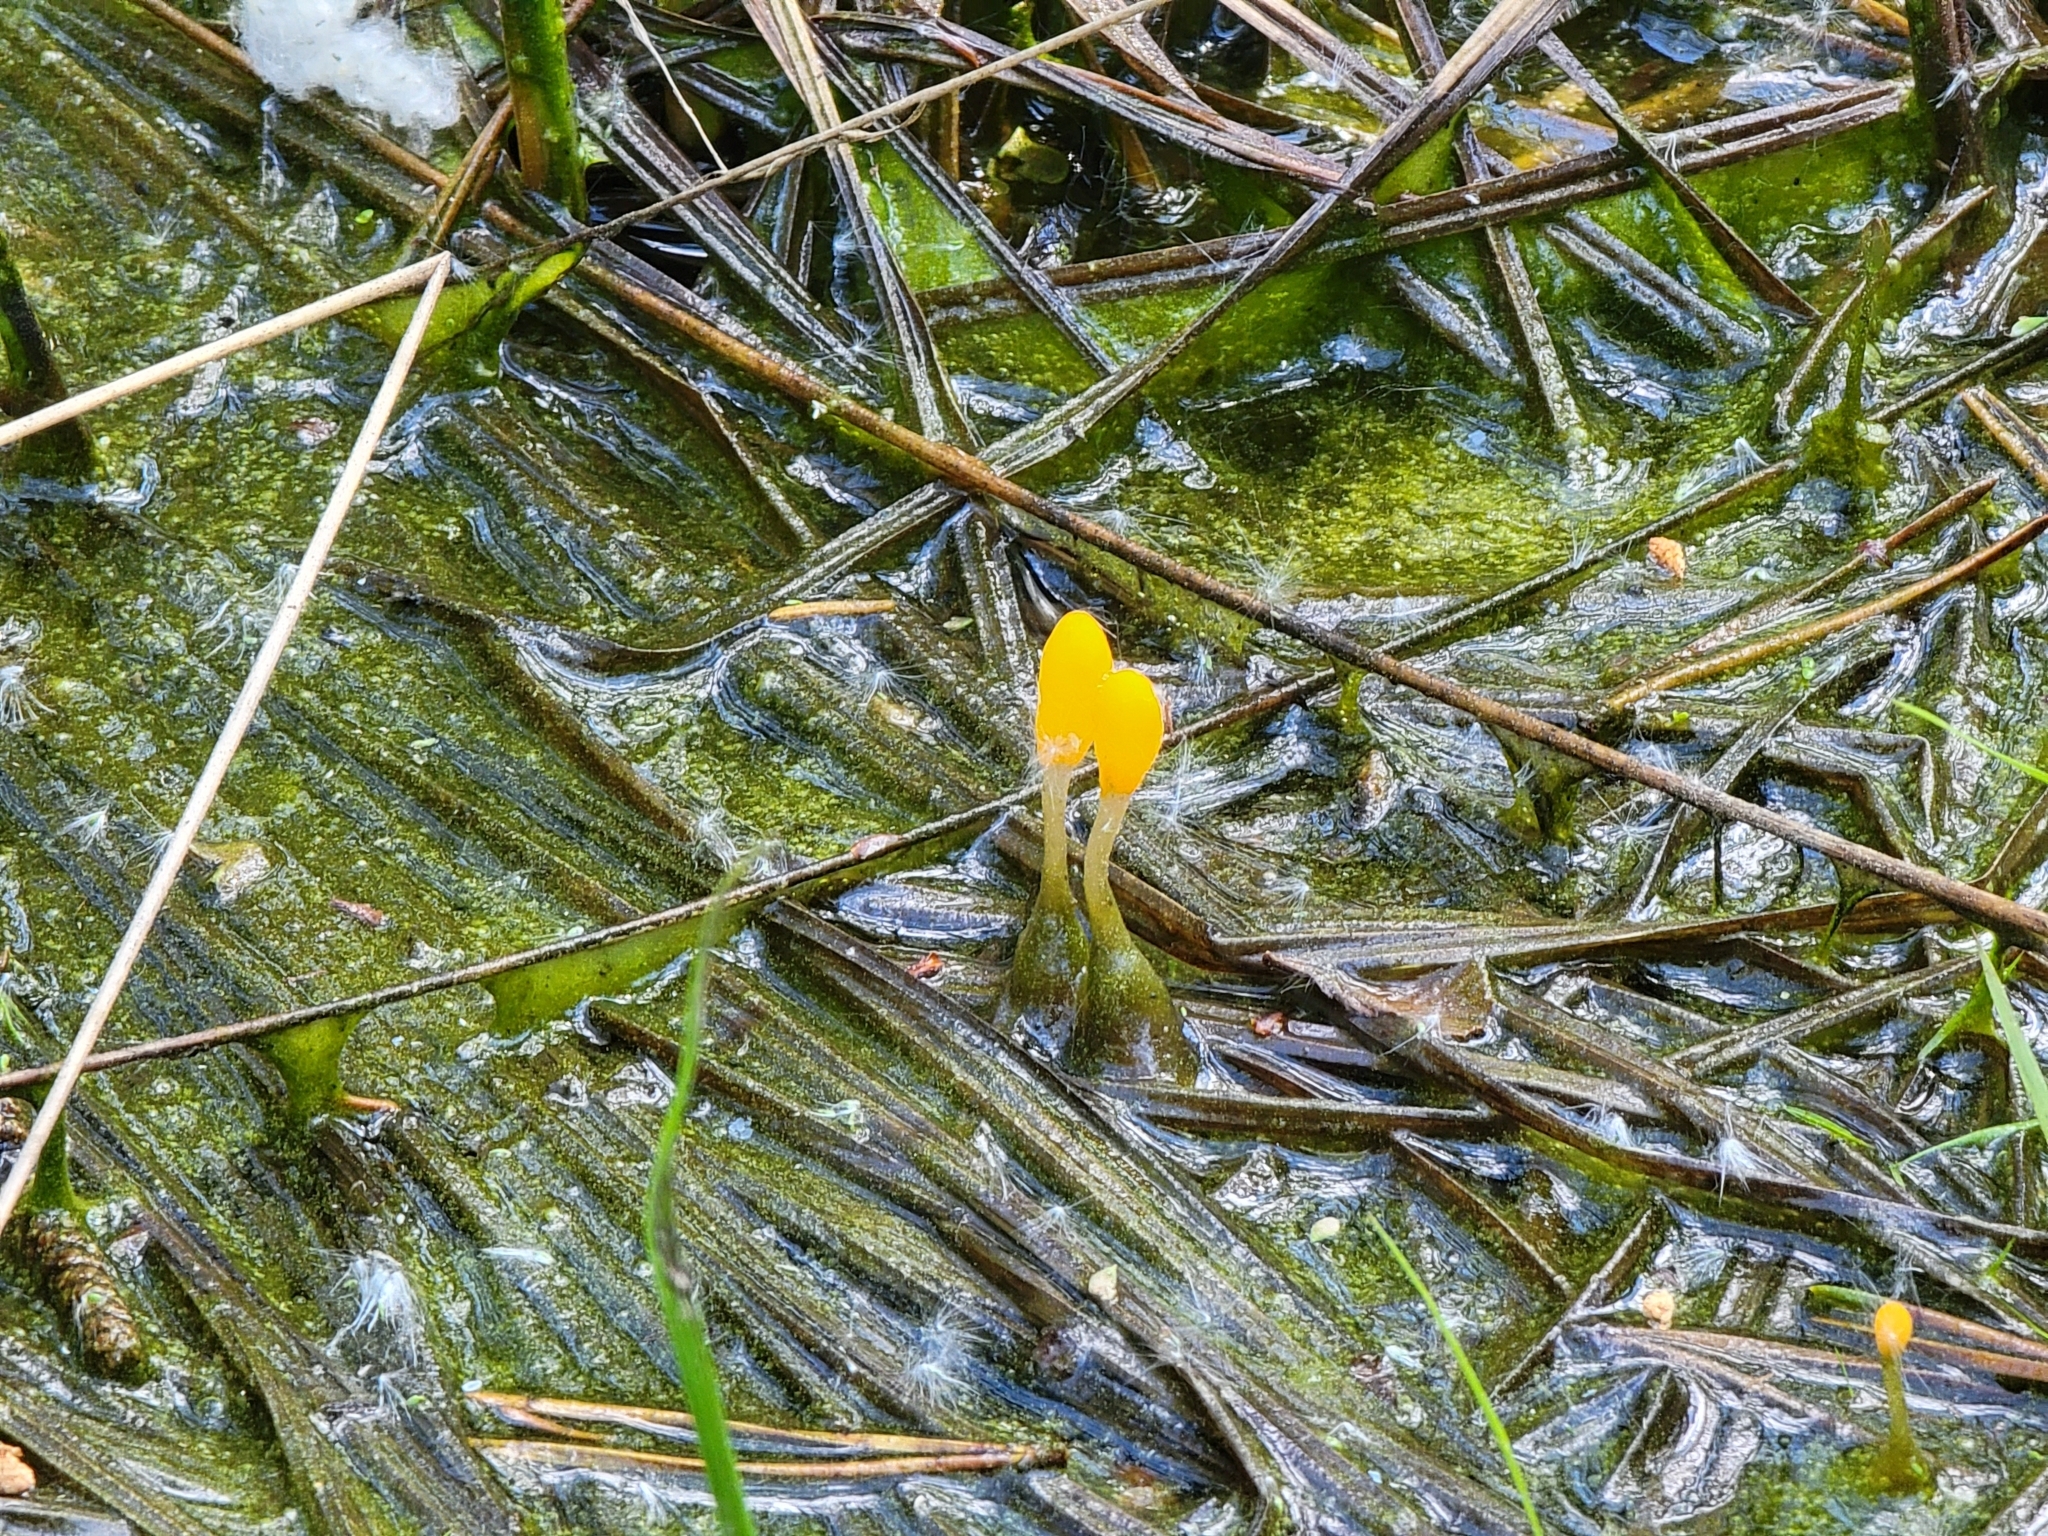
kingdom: Fungi
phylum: Ascomycota
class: Leotiomycetes
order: Helotiales
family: Cenangiaceae
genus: Mitrula
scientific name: Mitrula paludosa
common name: Bog beacon
